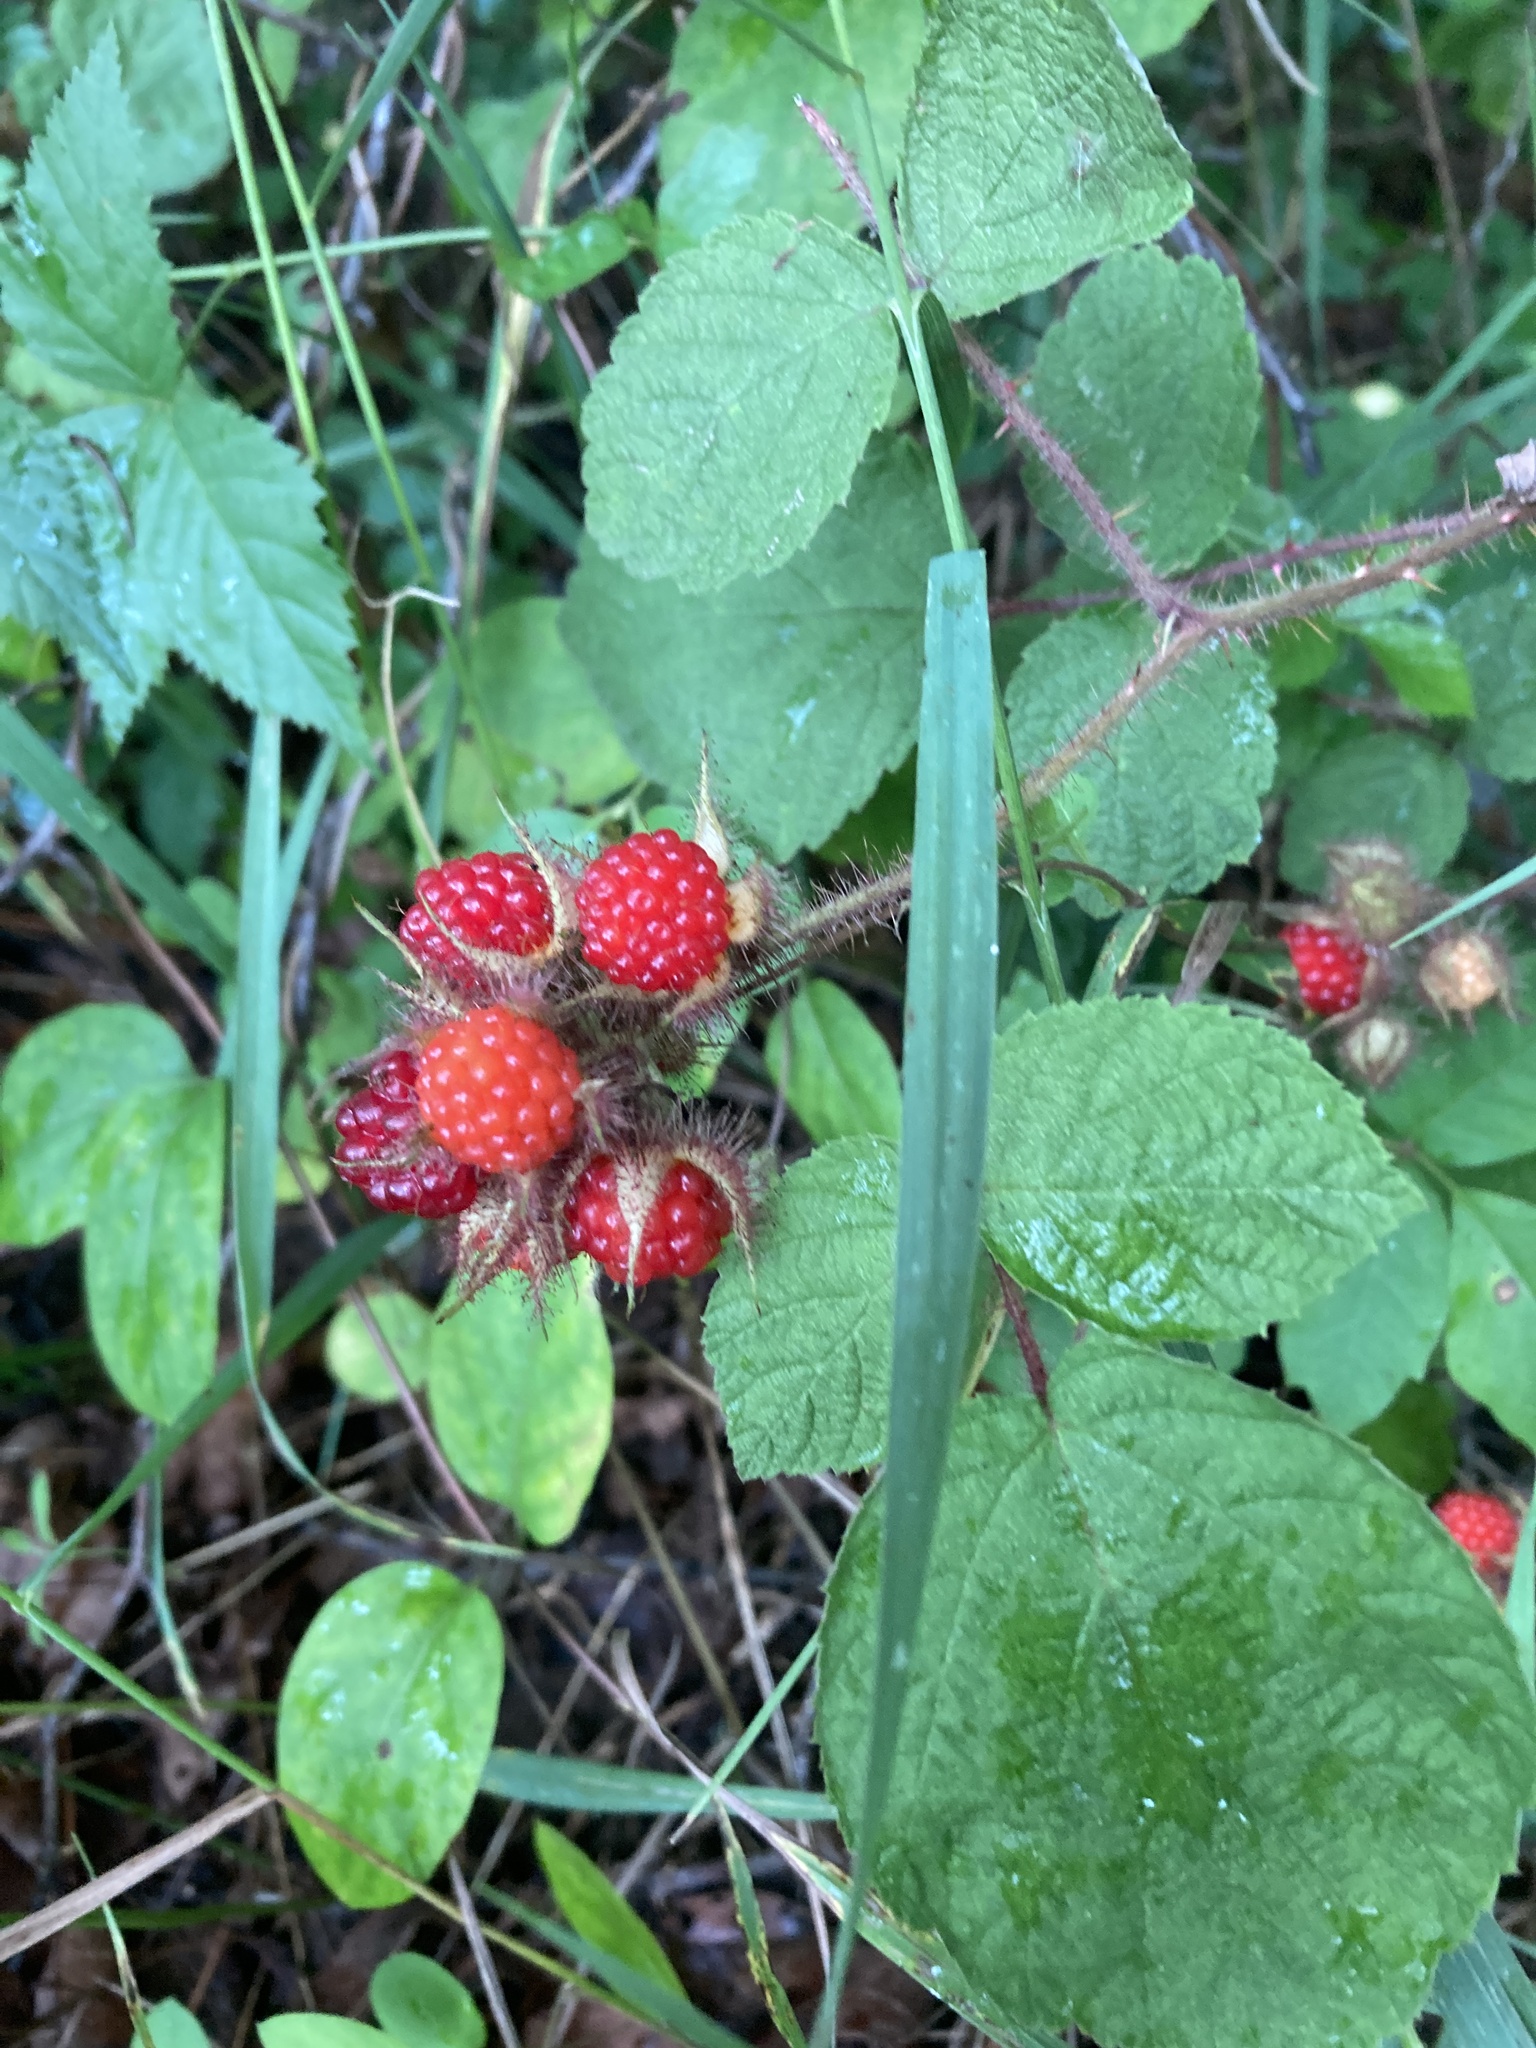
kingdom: Plantae
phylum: Tracheophyta
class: Magnoliopsida
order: Rosales
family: Rosaceae
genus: Rubus
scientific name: Rubus phoenicolasius
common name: Japanese wineberry
